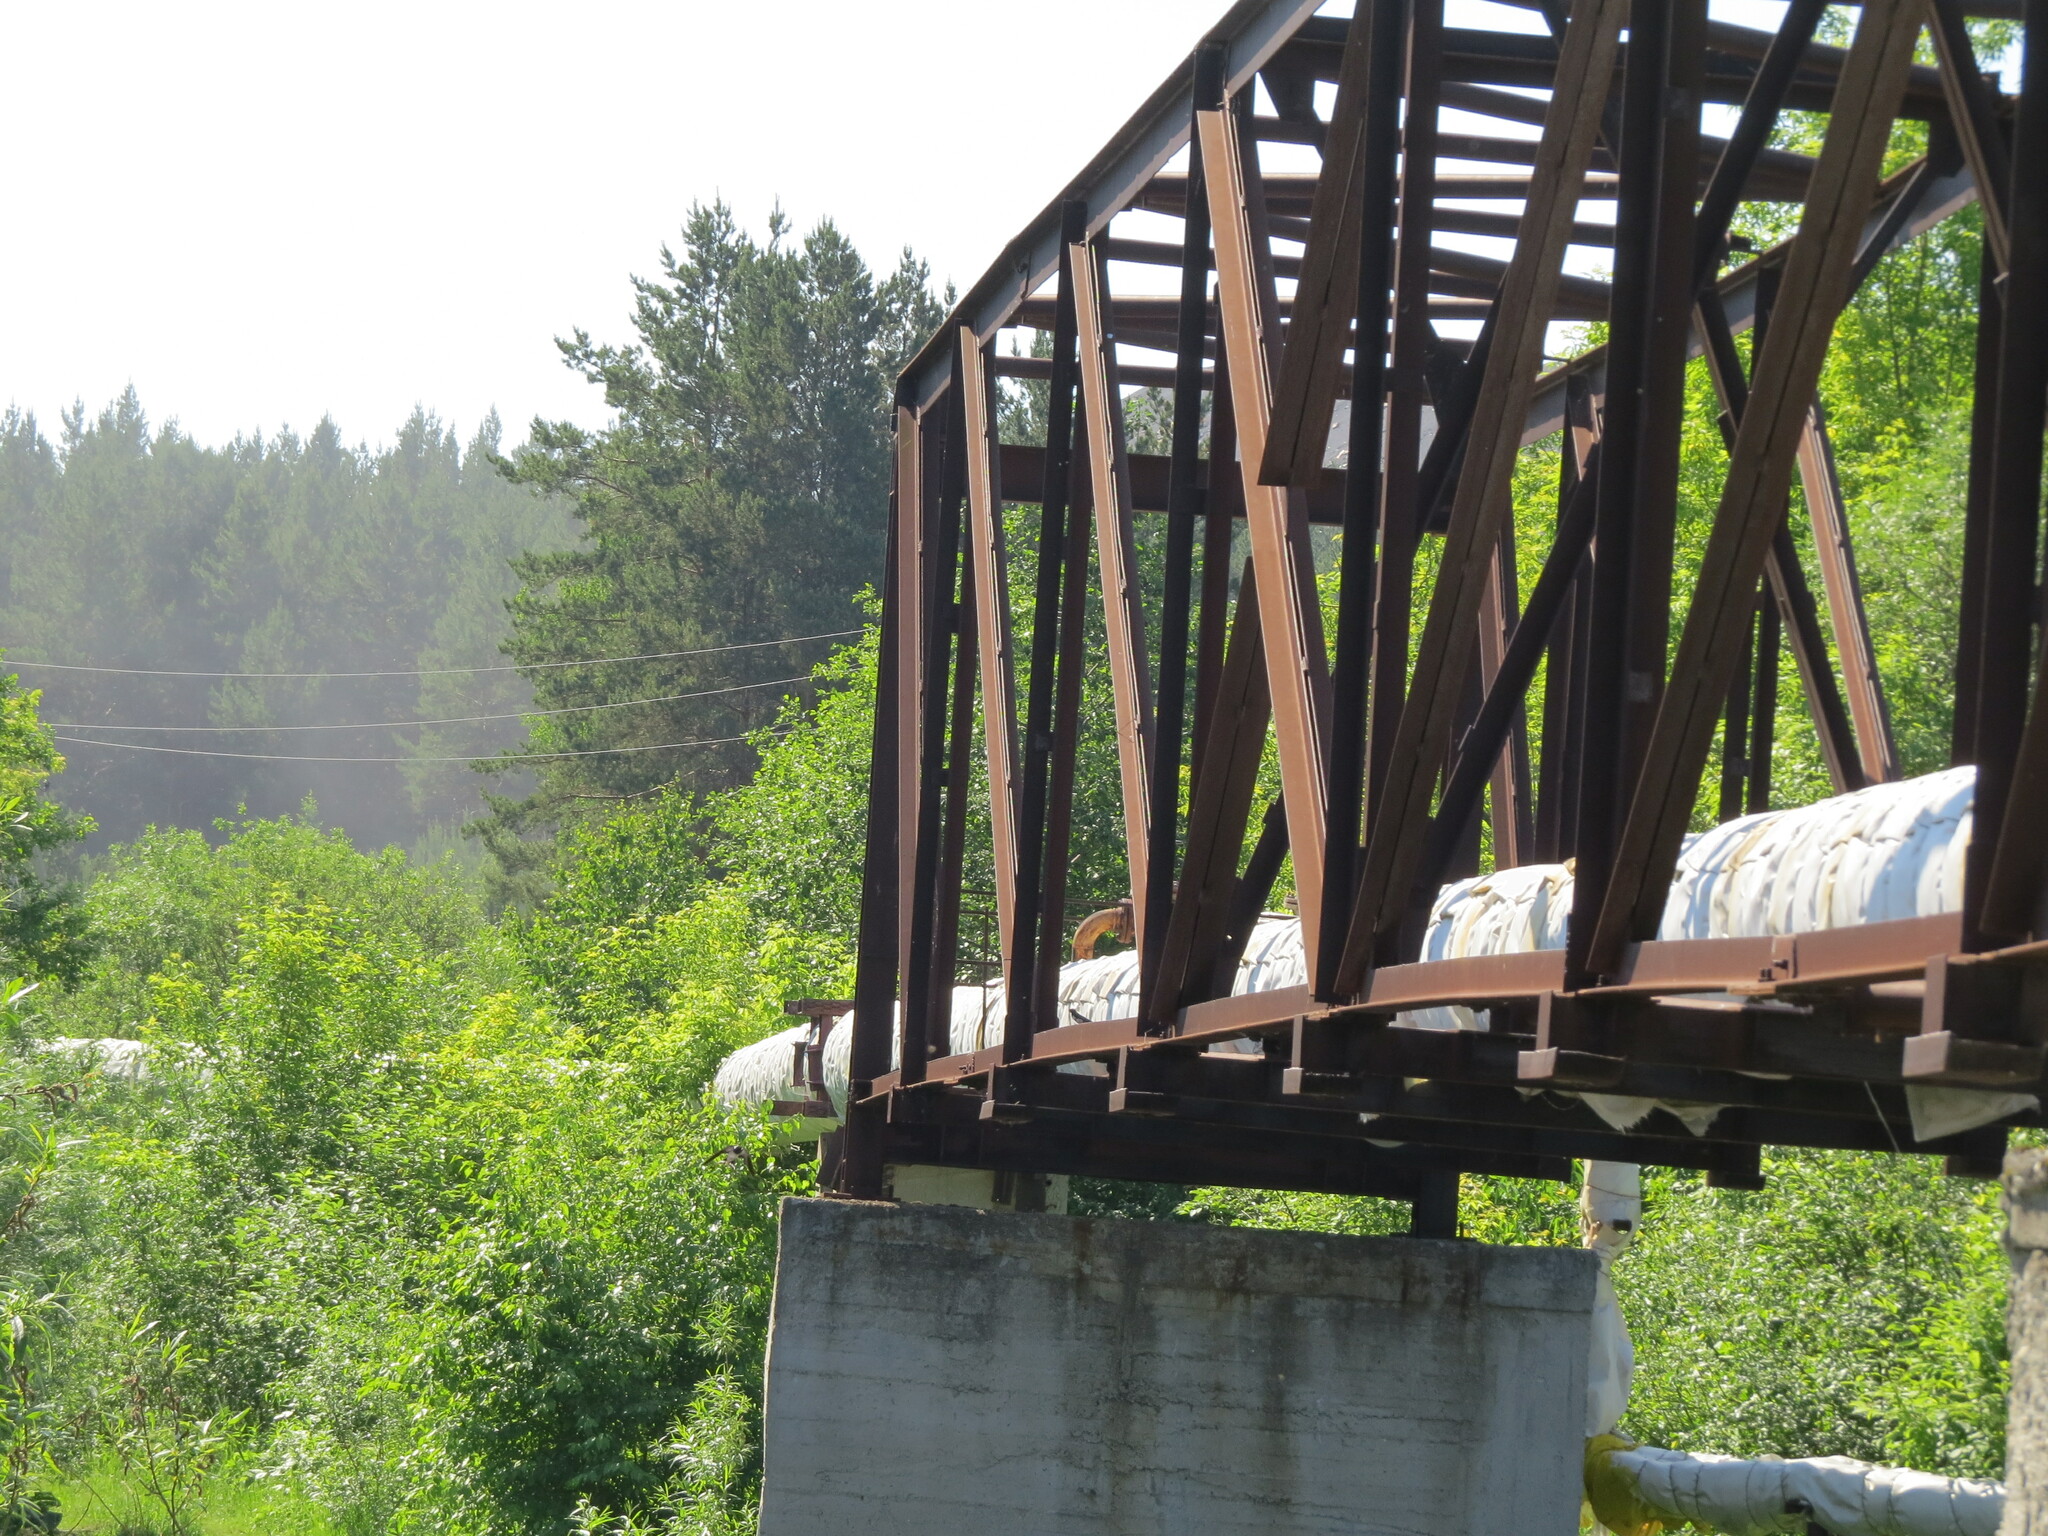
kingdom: Animalia
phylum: Chordata
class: Aves
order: Passeriformes
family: Hirundinidae
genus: Hirundo
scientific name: Hirundo rustica
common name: Barn swallow
